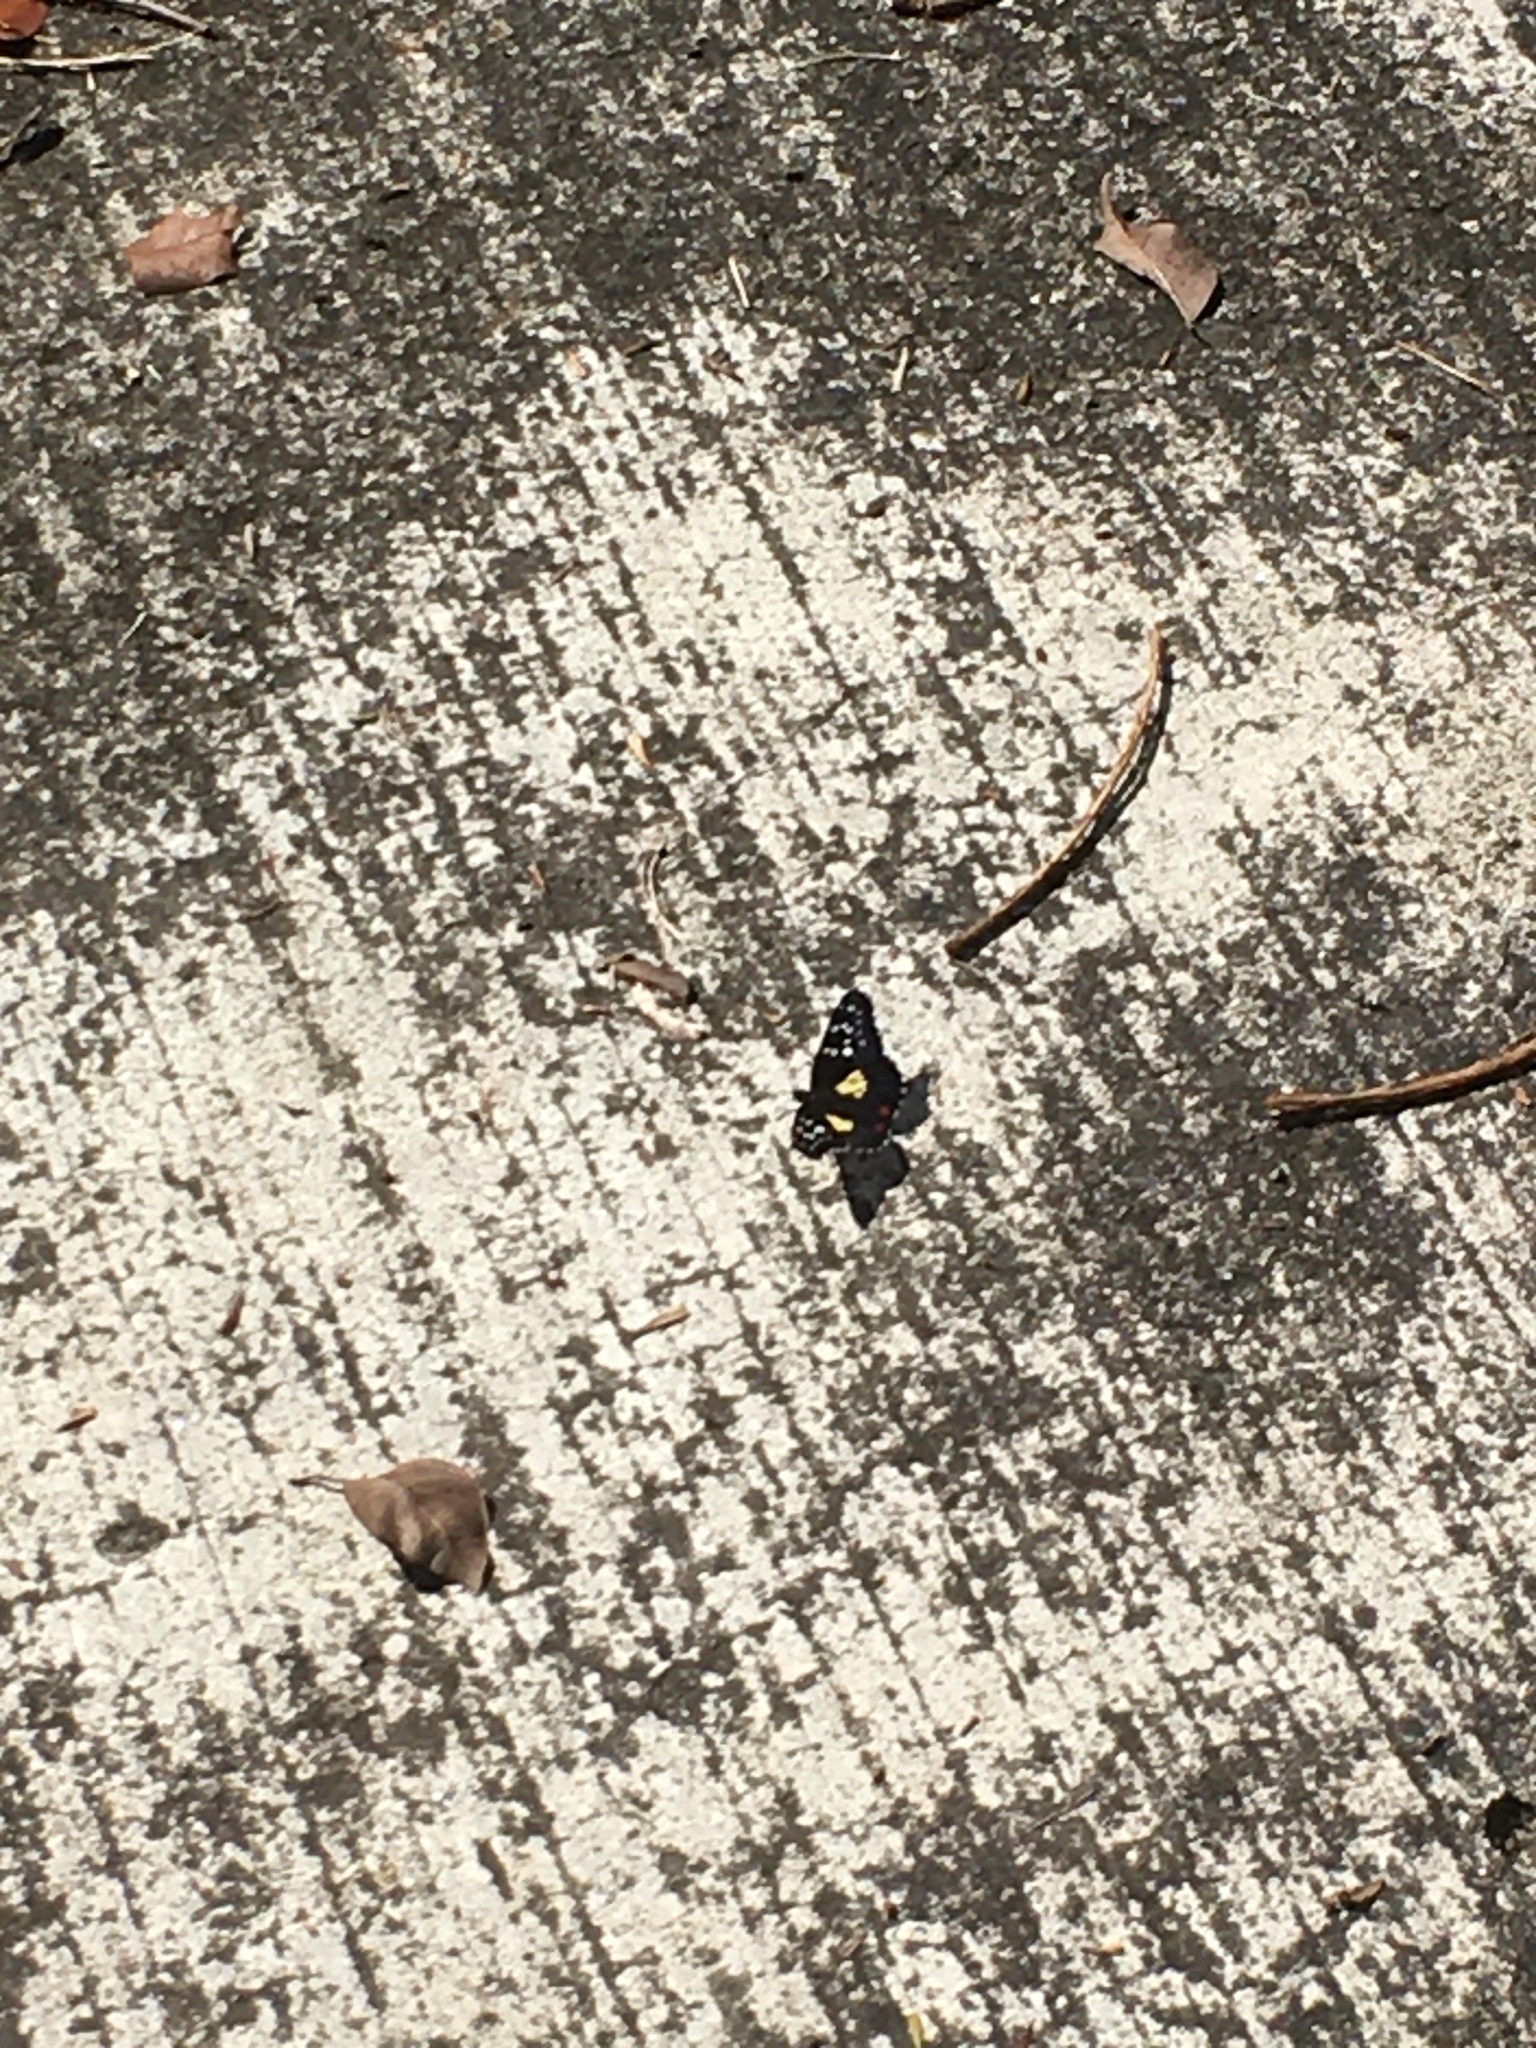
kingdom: Animalia
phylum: Arthropoda
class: Insecta
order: Lepidoptera
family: Nymphalidae
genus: Chlosyne
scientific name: Chlosyne erodyle
